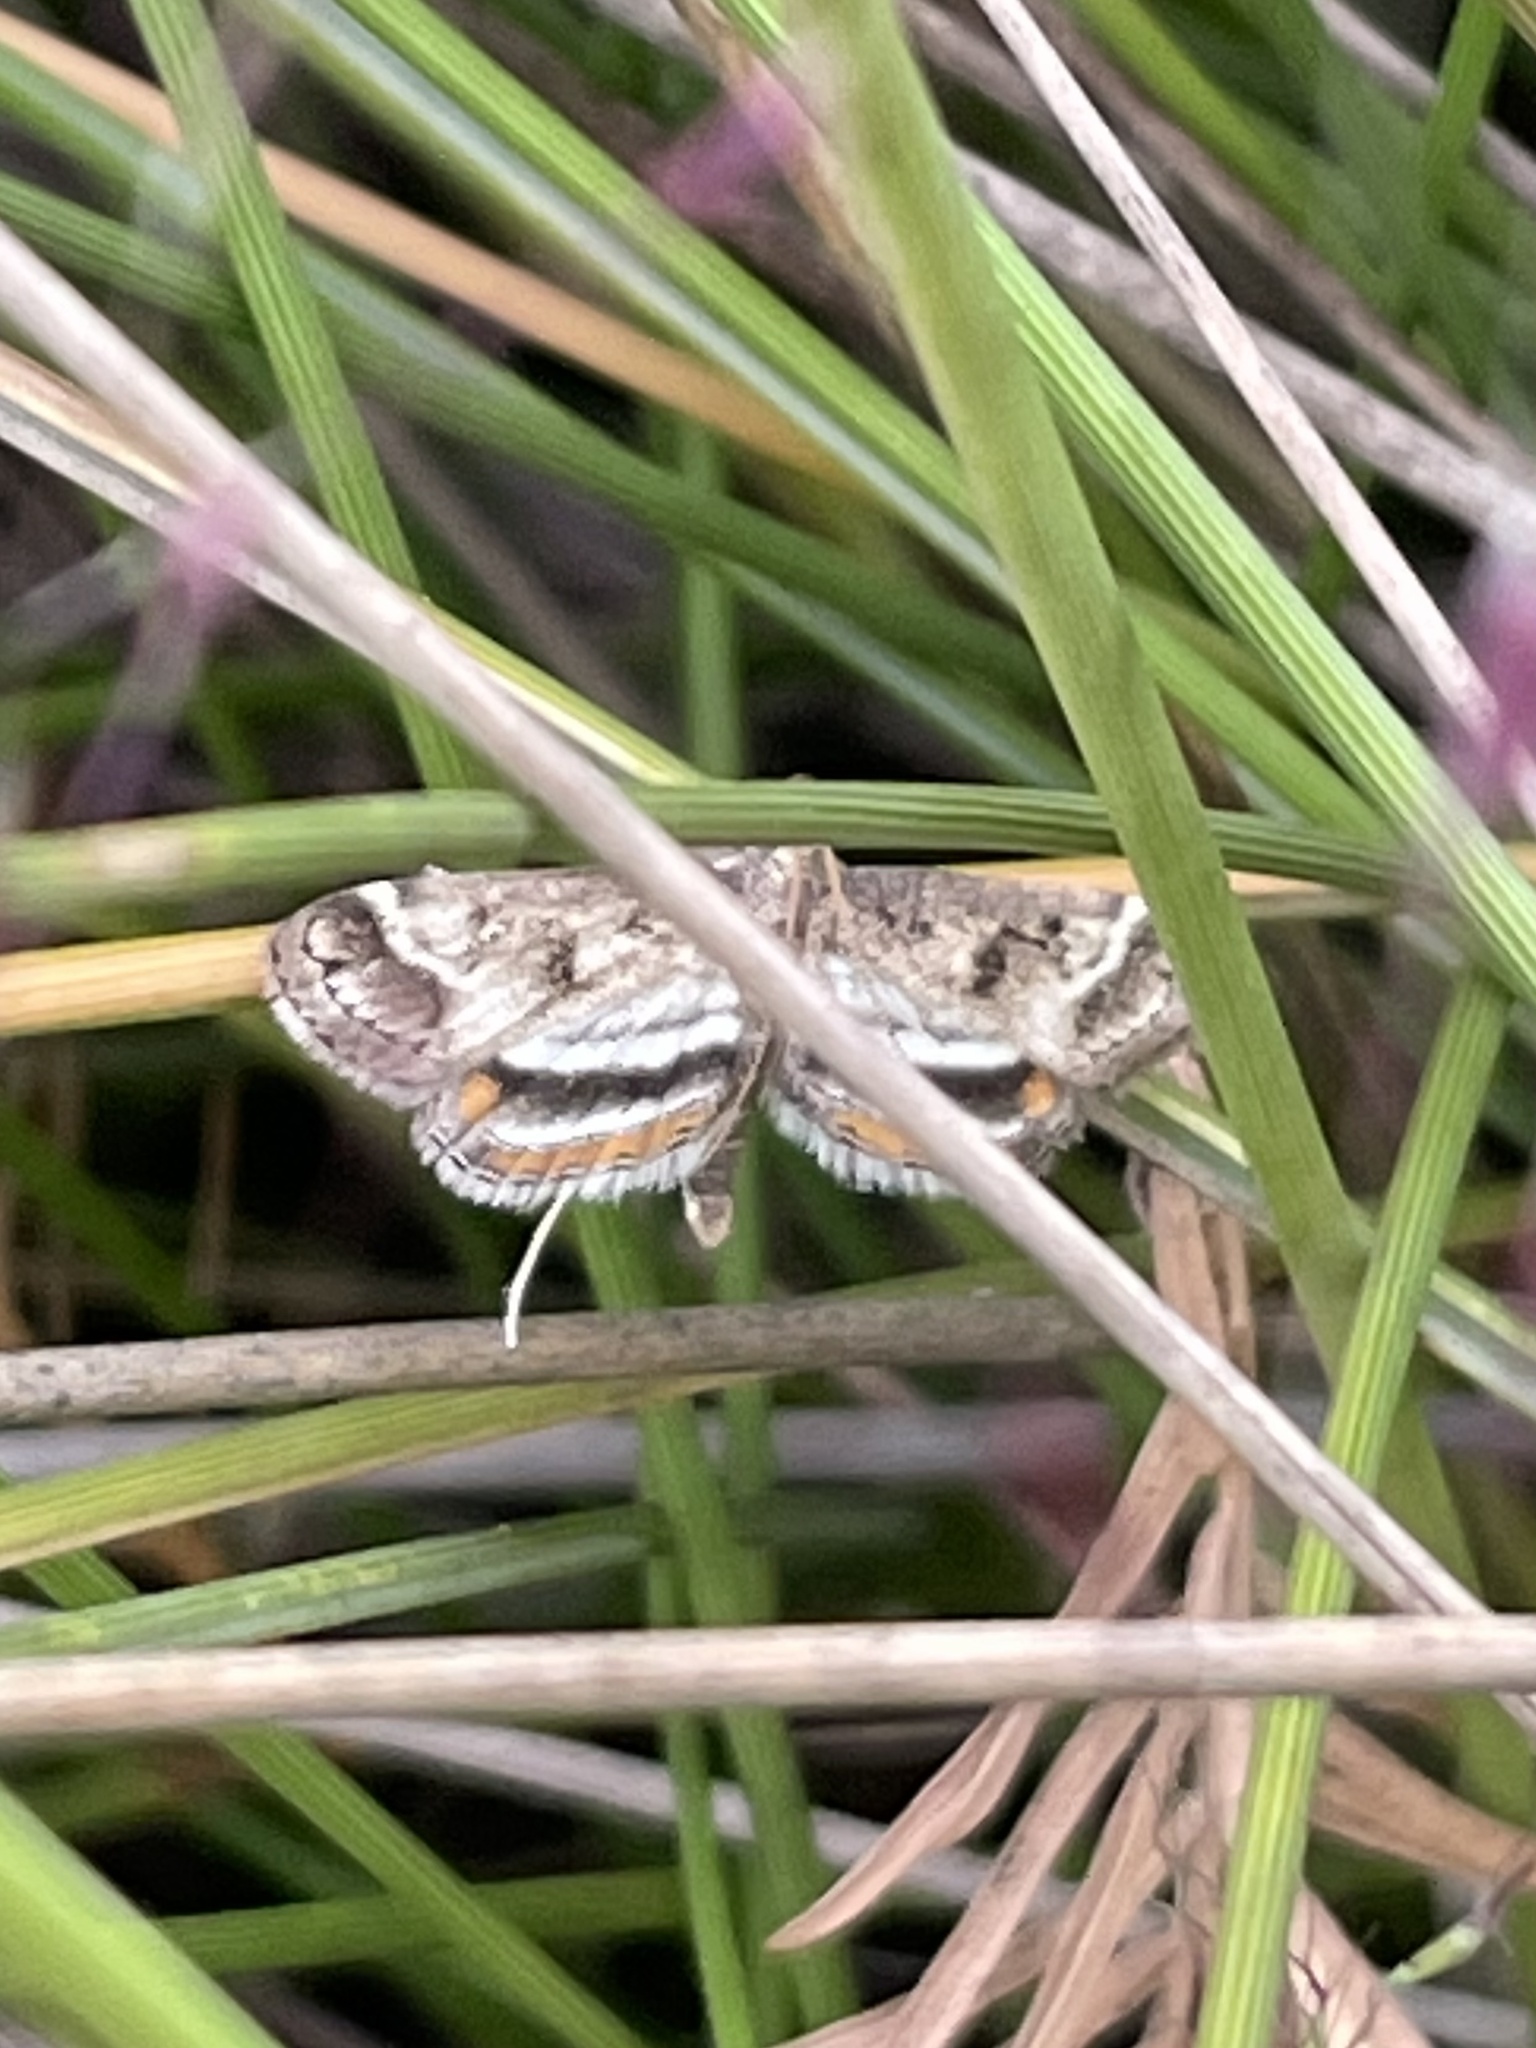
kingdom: Animalia
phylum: Arthropoda
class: Insecta
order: Lepidoptera
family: Crambidae
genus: Parapoynx
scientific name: Parapoynx obscuralis
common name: American china-mark
